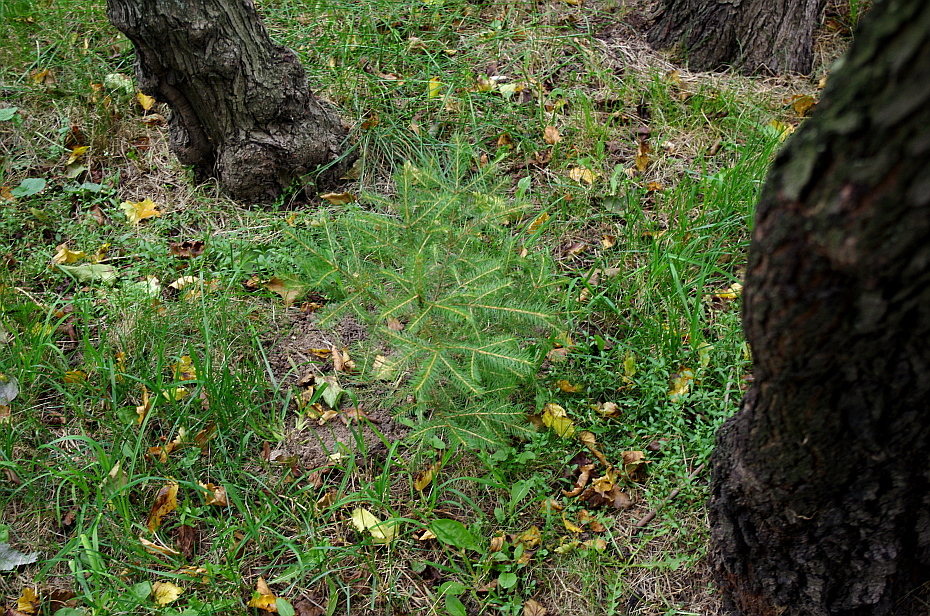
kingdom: Plantae
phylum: Tracheophyta
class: Pinopsida
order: Pinales
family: Pinaceae
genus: Picea
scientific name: Picea abies
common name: Norway spruce
